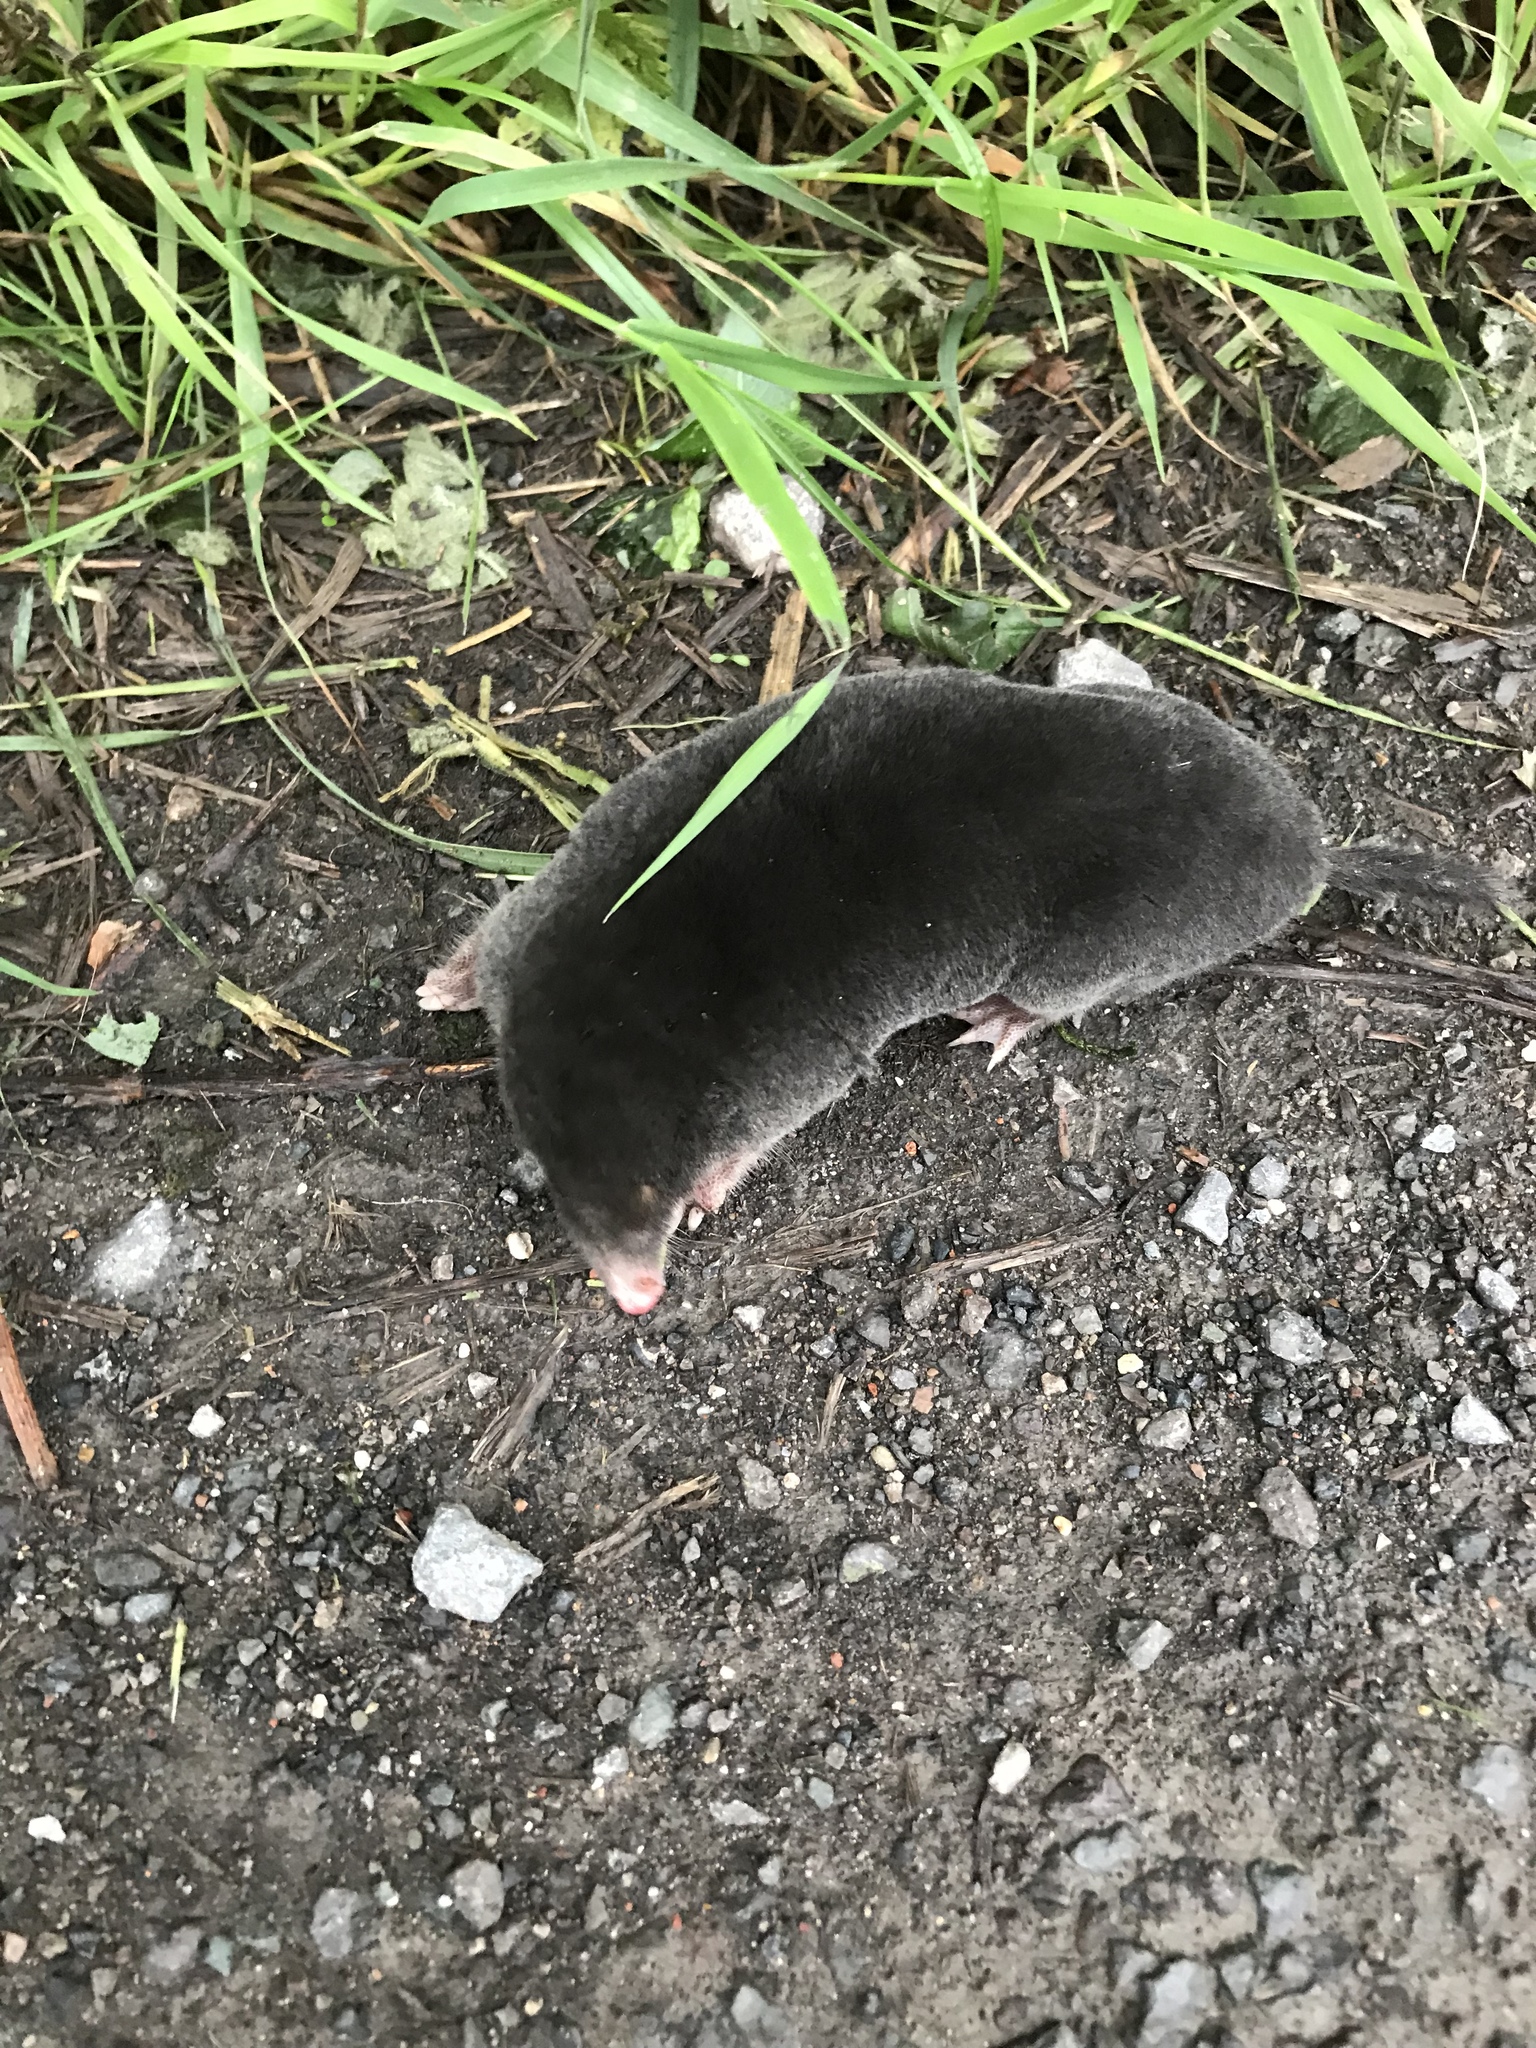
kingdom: Animalia
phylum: Chordata
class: Mammalia
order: Soricomorpha
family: Talpidae
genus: Talpa
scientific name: Talpa europaea
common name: European mole
